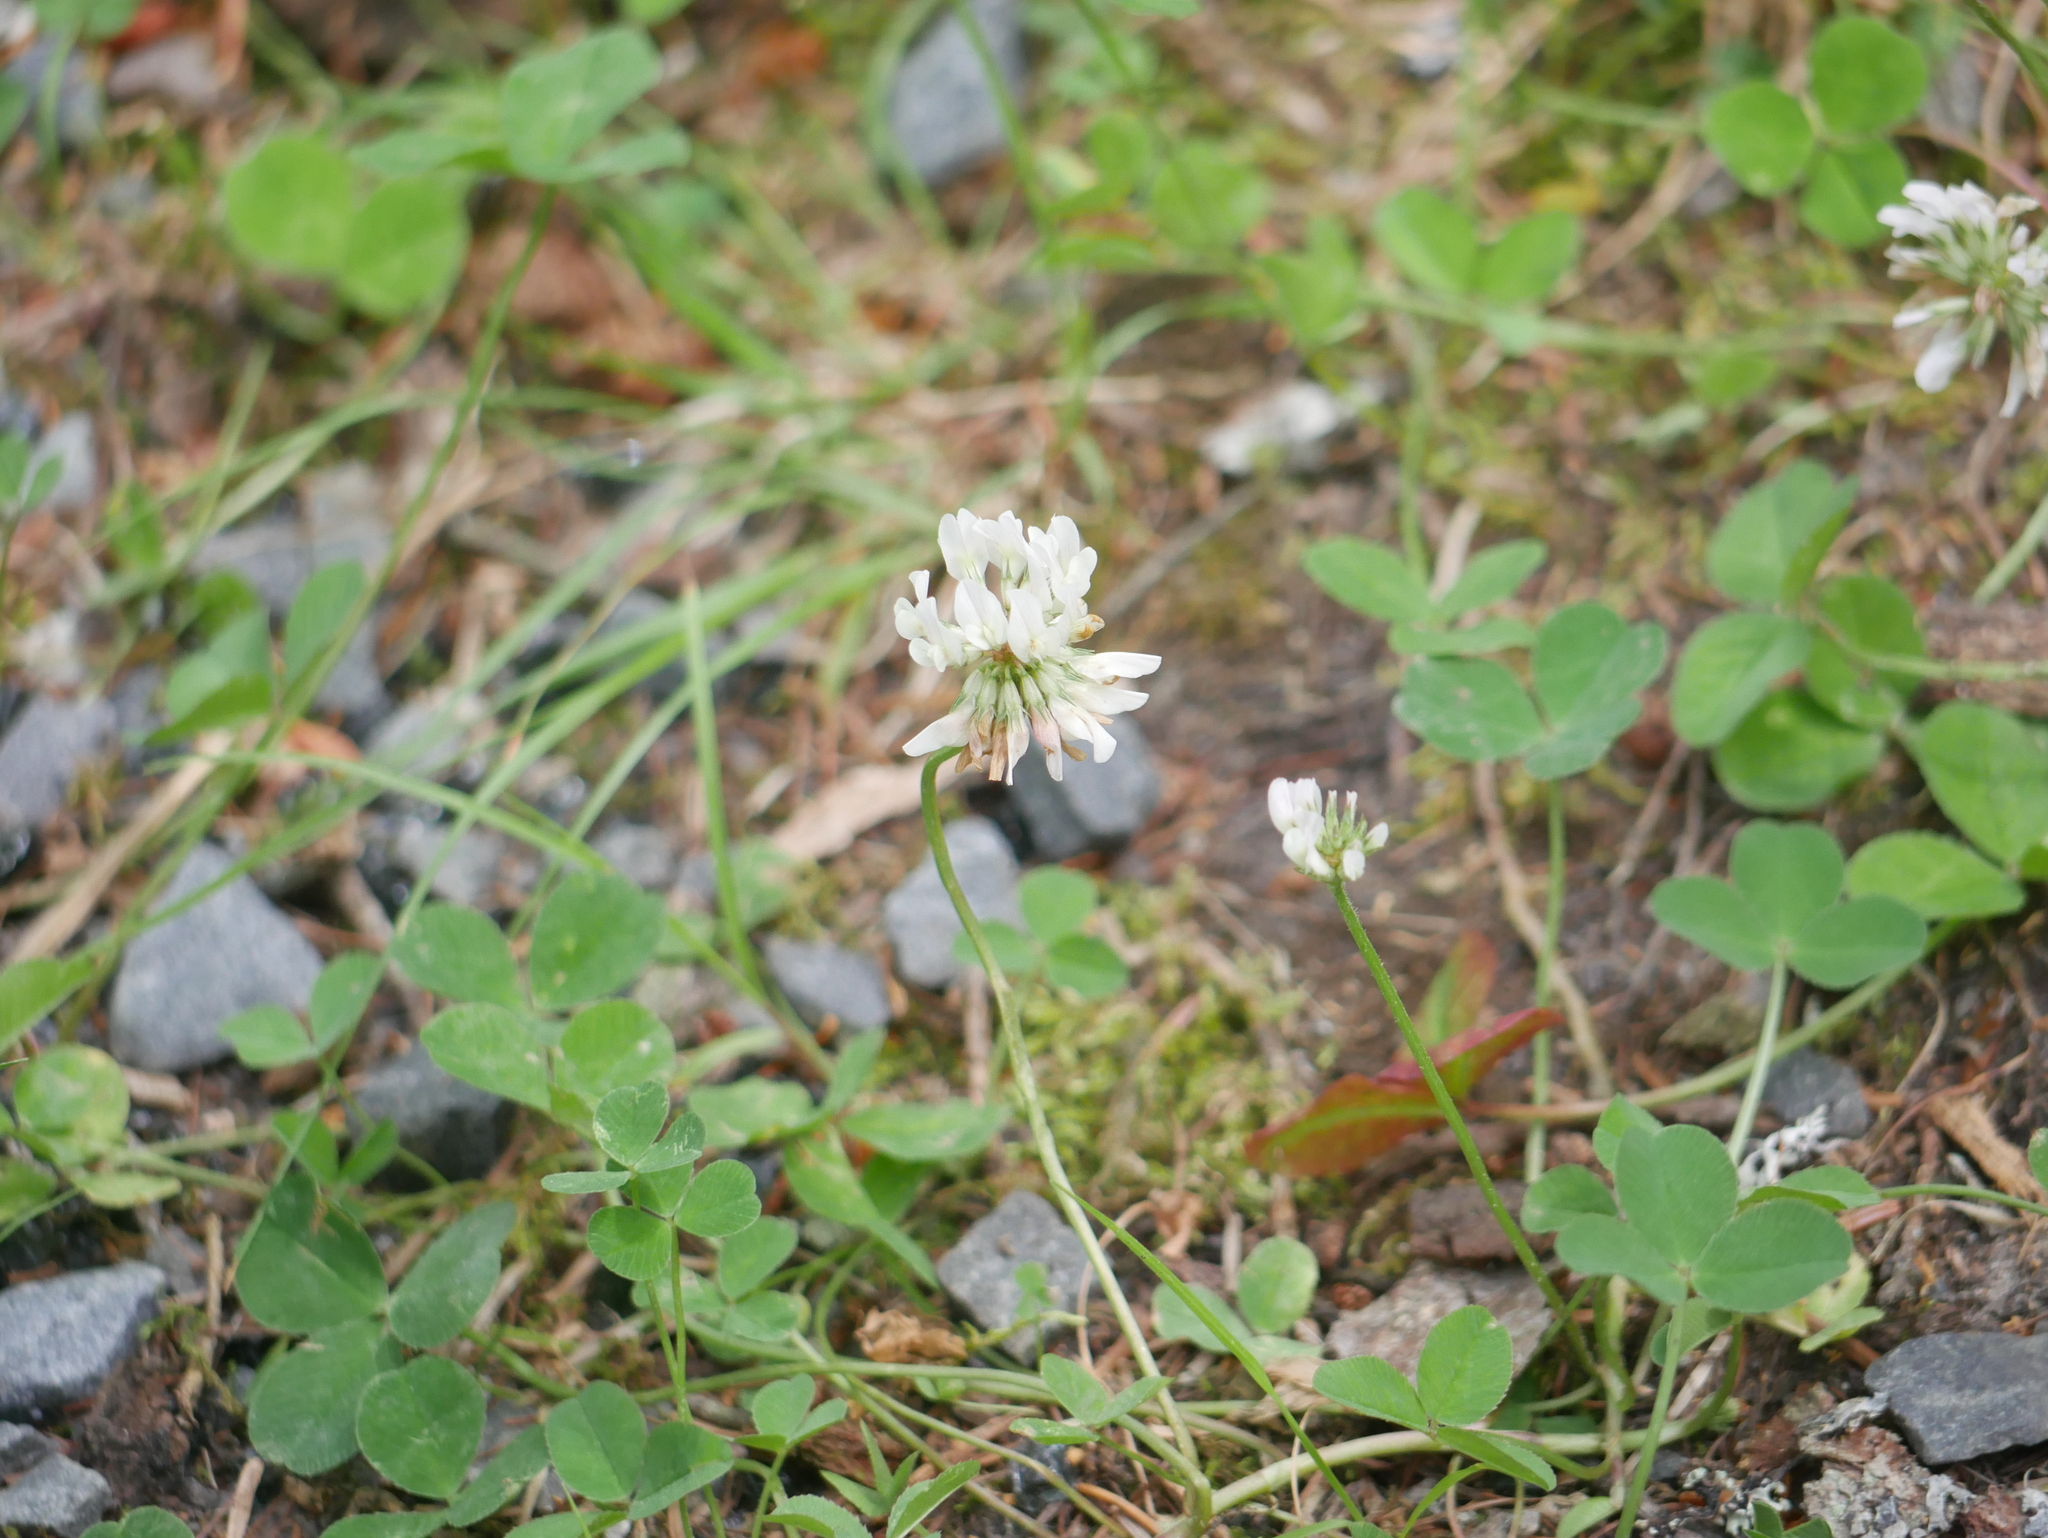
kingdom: Plantae
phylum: Tracheophyta
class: Magnoliopsida
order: Fabales
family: Fabaceae
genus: Trifolium
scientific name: Trifolium repens
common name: White clover
